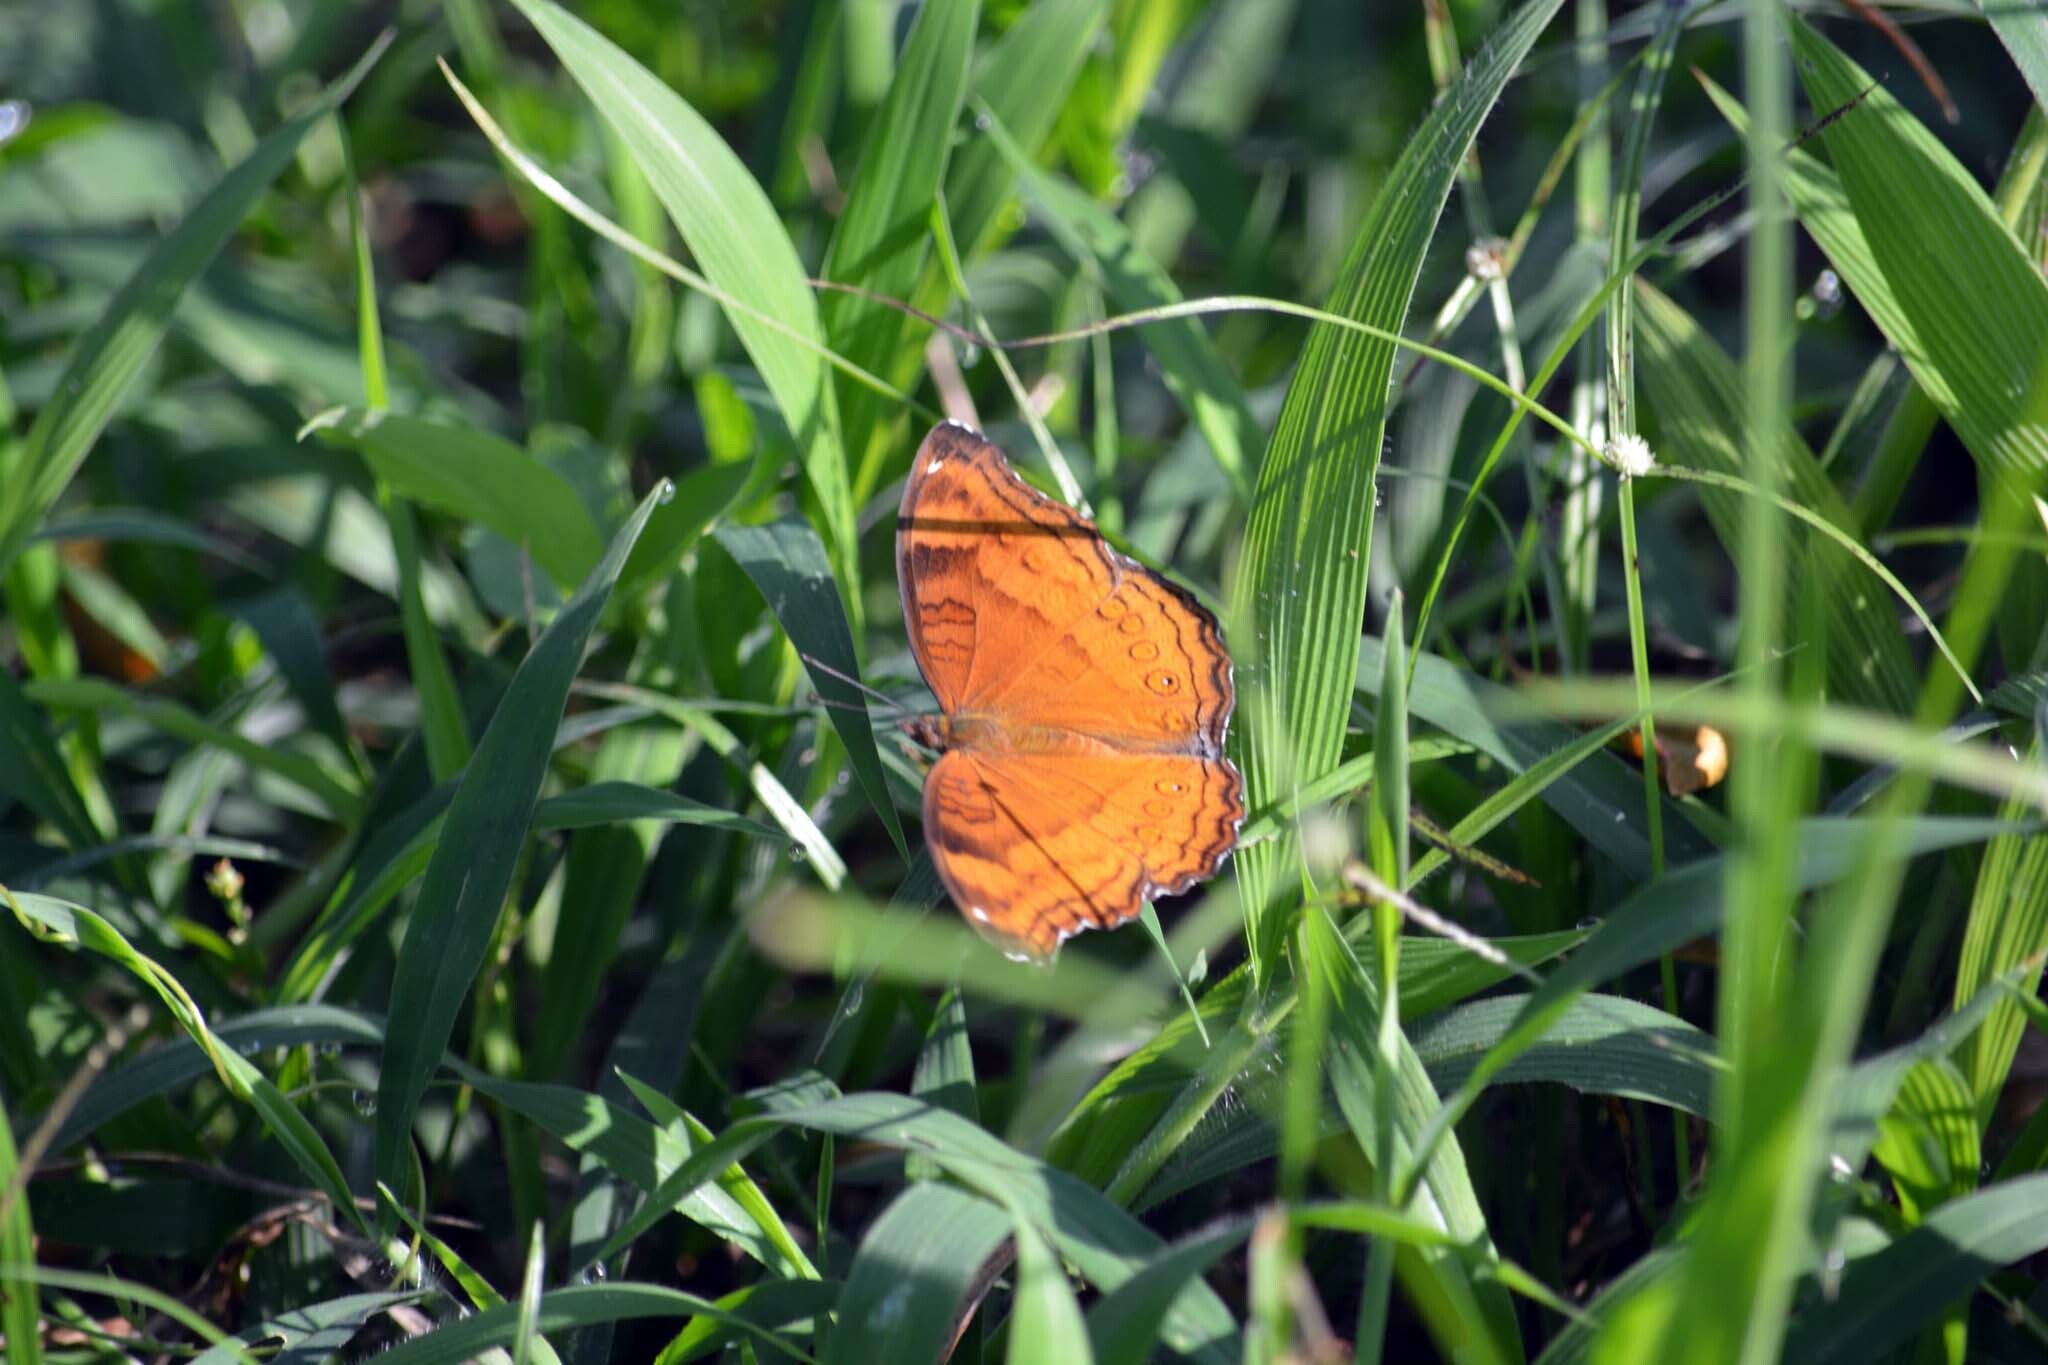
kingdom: Animalia
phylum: Arthropoda
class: Insecta
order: Lepidoptera
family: Nymphalidae
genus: Junonia
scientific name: Junonia hedonia
